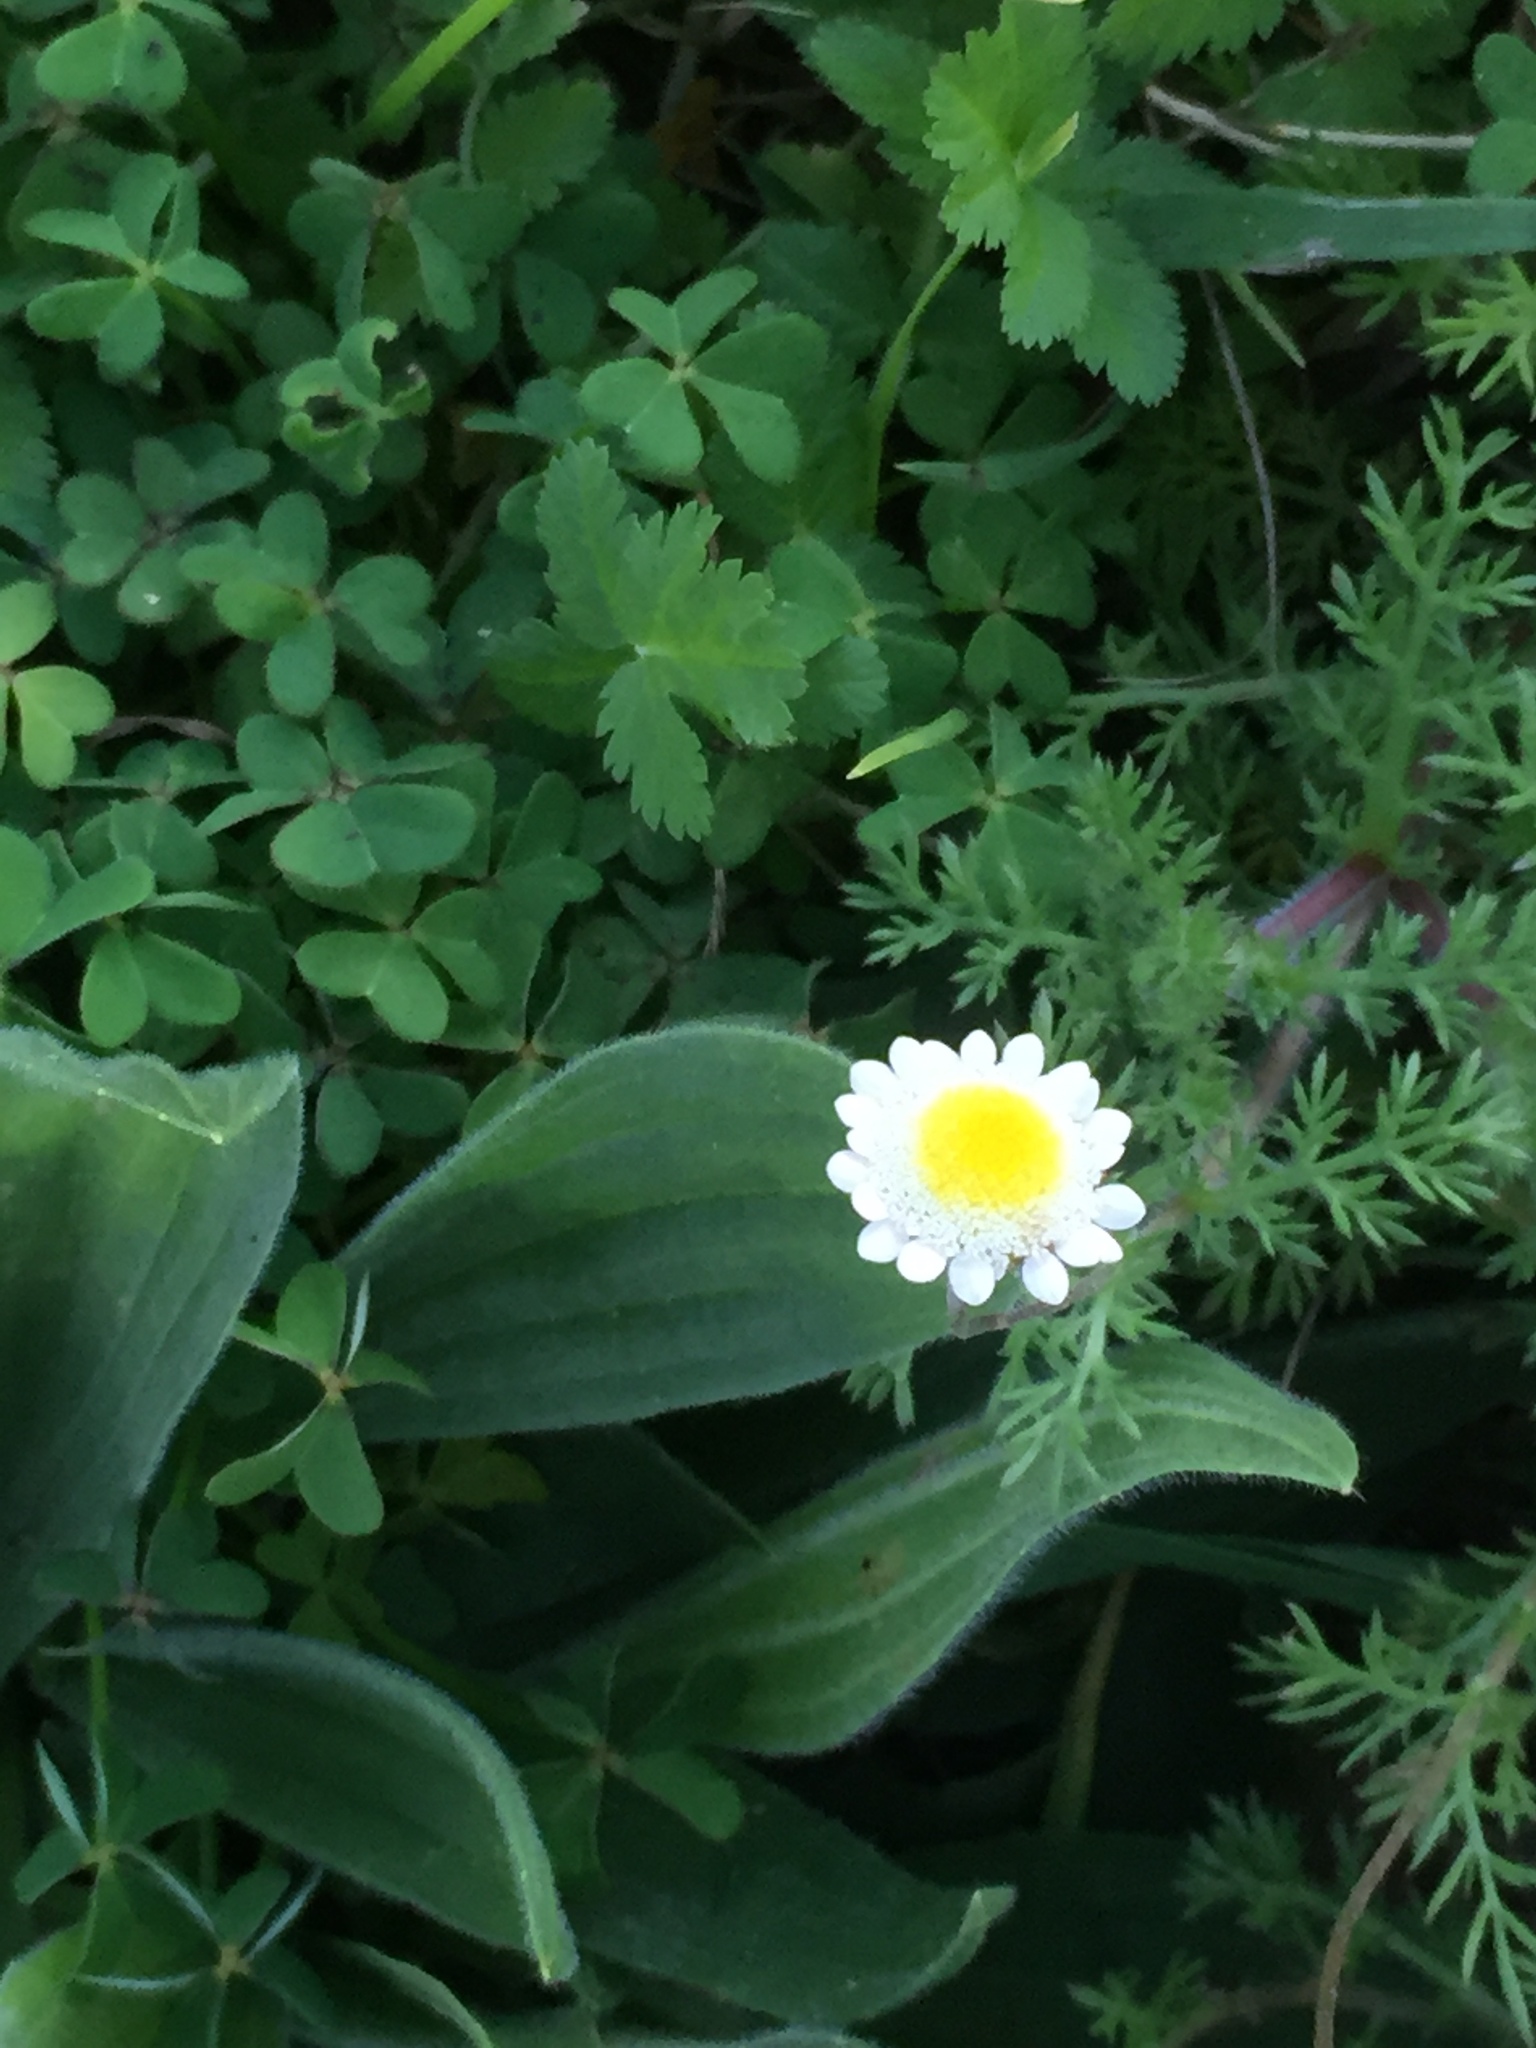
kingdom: Plantae
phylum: Tracheophyta
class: Magnoliopsida
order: Asterales
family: Asteraceae
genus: Cotula
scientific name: Cotula turbinata
